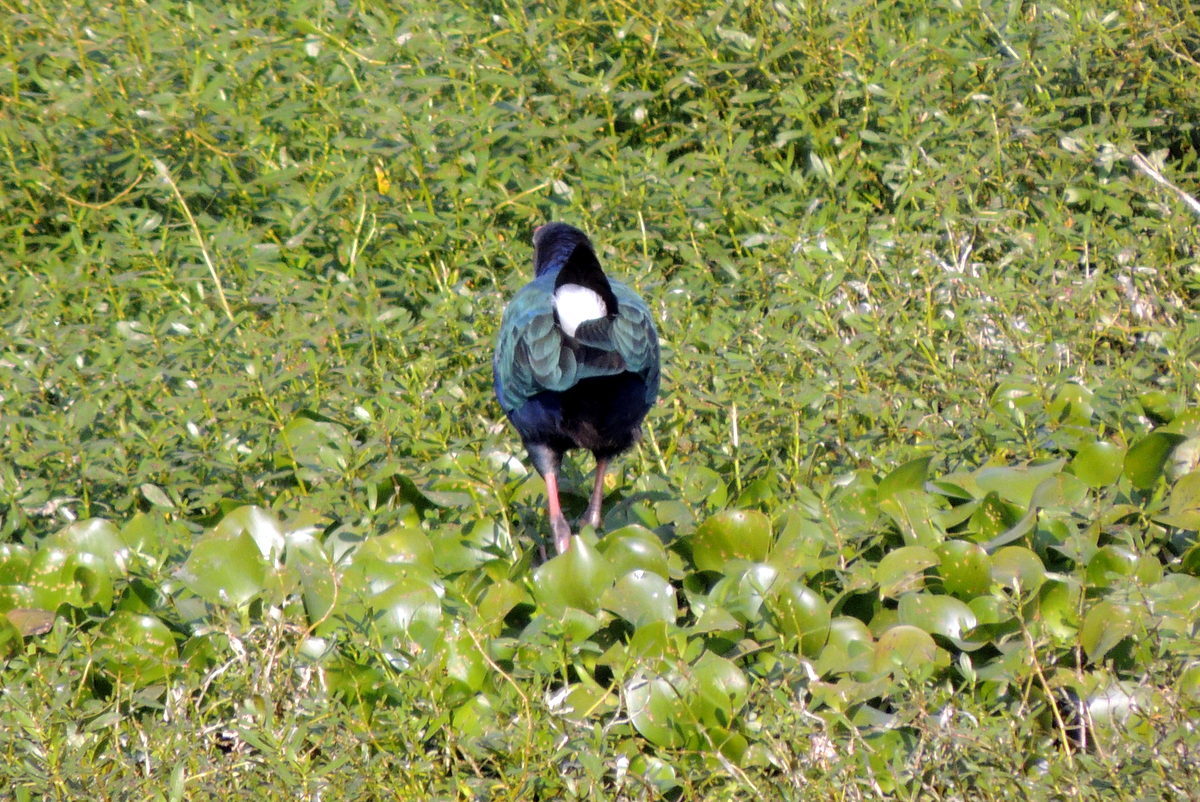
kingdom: Animalia
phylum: Chordata
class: Aves
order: Gruiformes
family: Rallidae
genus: Porphyrio
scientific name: Porphyrio porphyrio
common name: Purple swamphen
